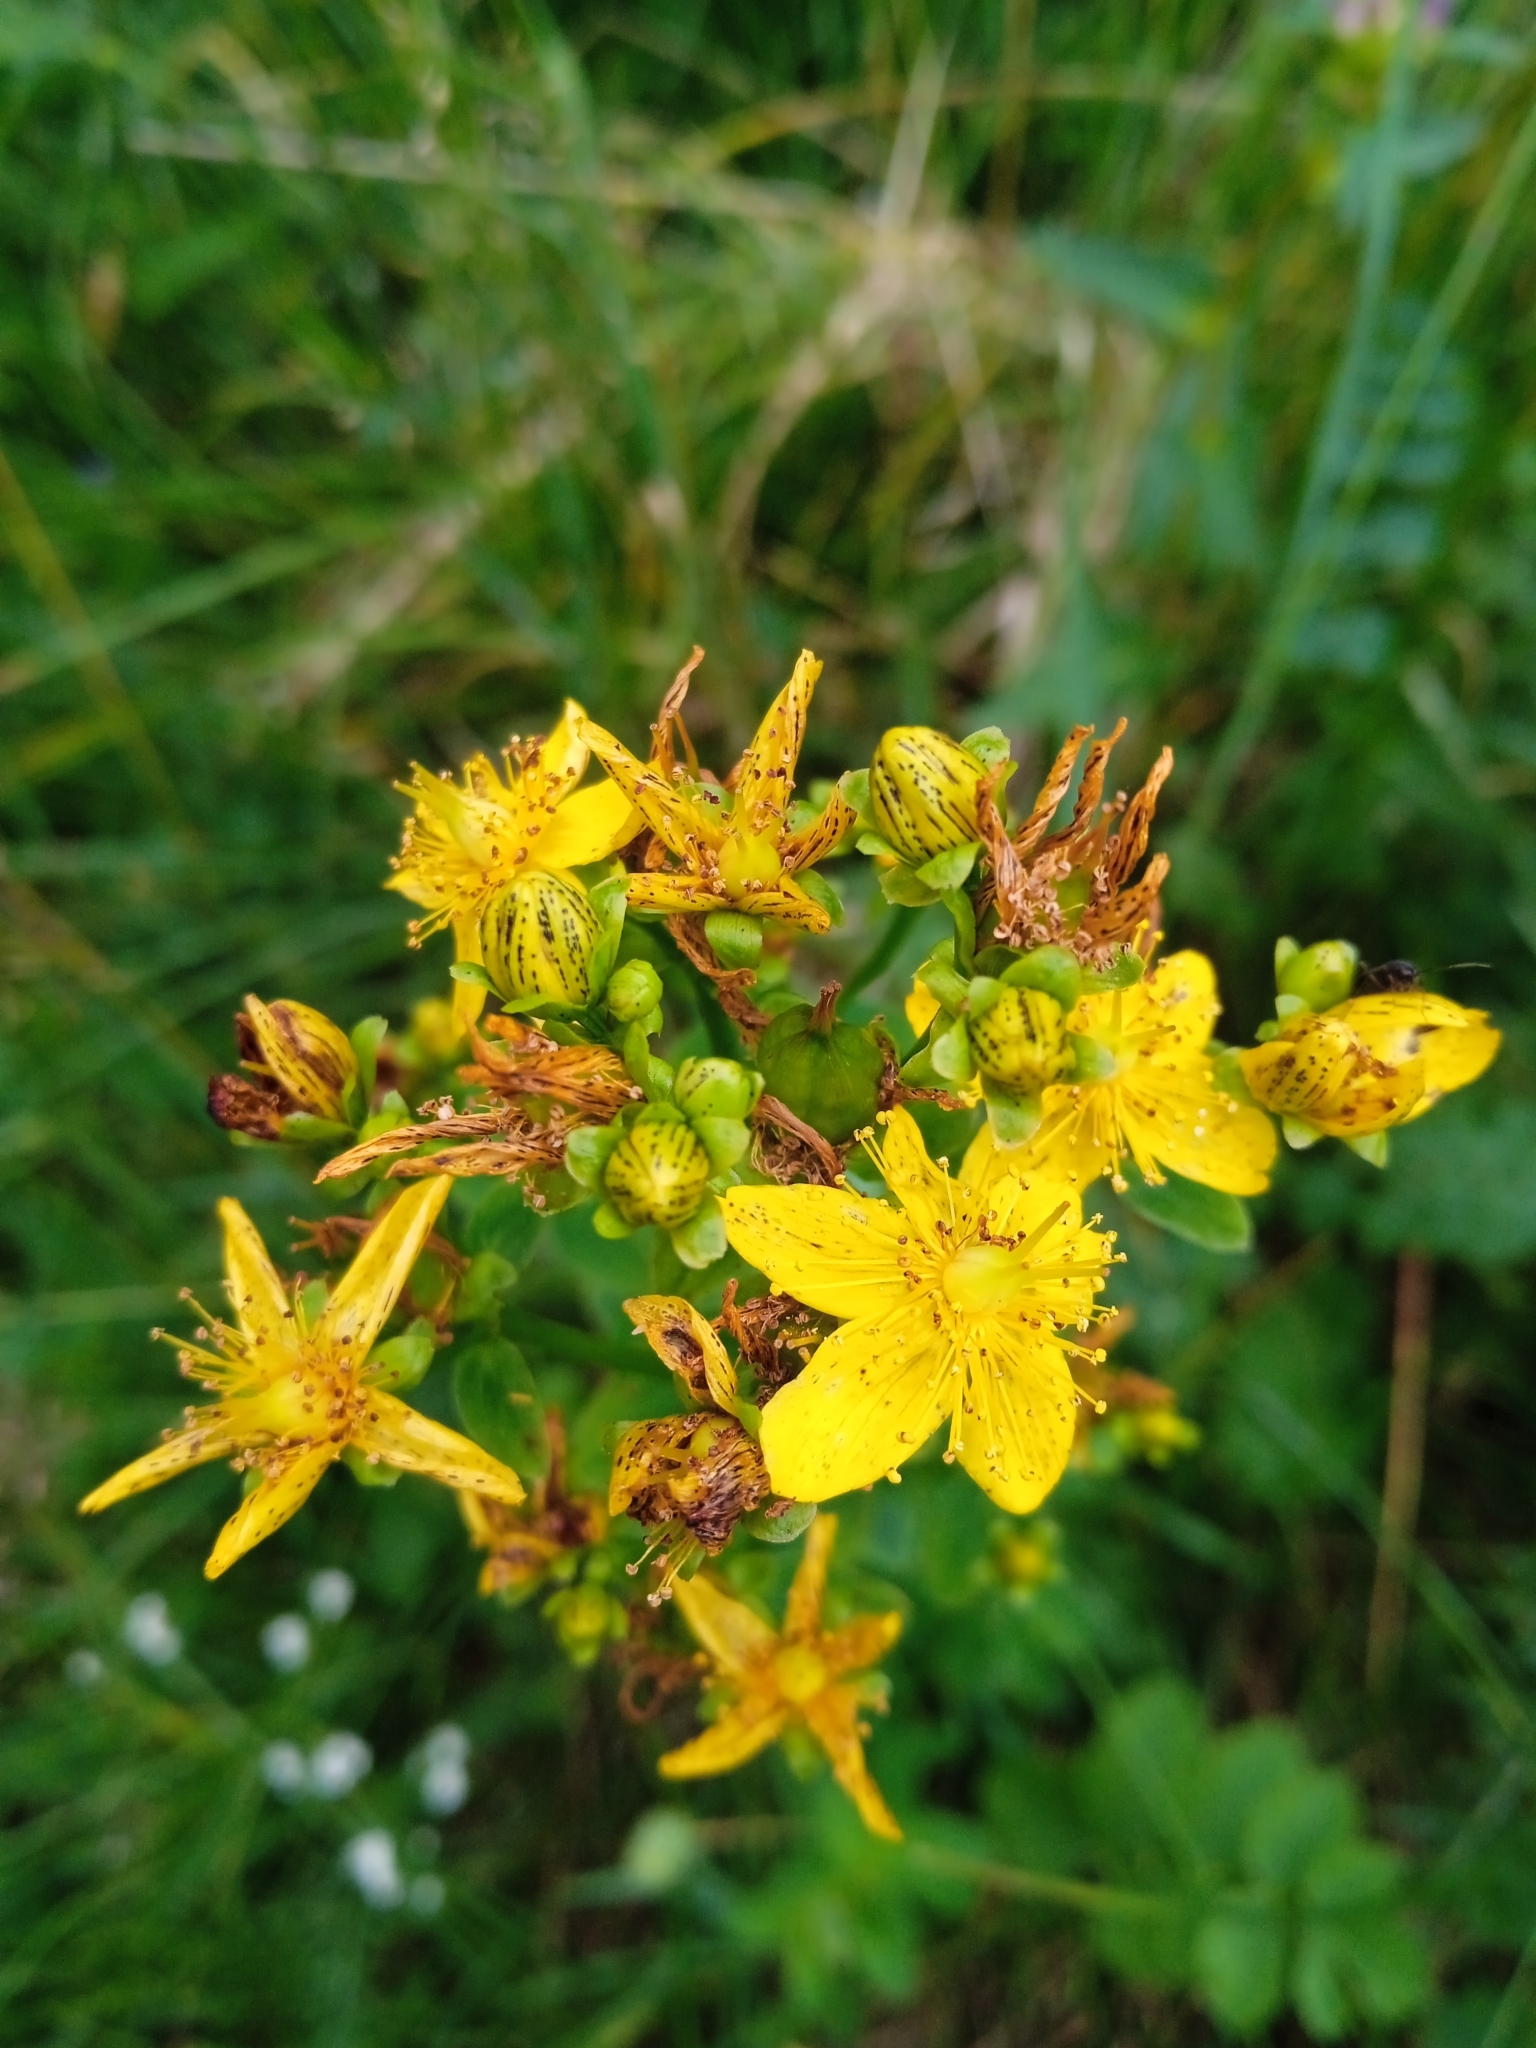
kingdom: Plantae
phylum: Tracheophyta
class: Magnoliopsida
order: Malpighiales
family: Hypericaceae
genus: Hypericum
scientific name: Hypericum maculatum
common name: Imperforate st. john's-wort
